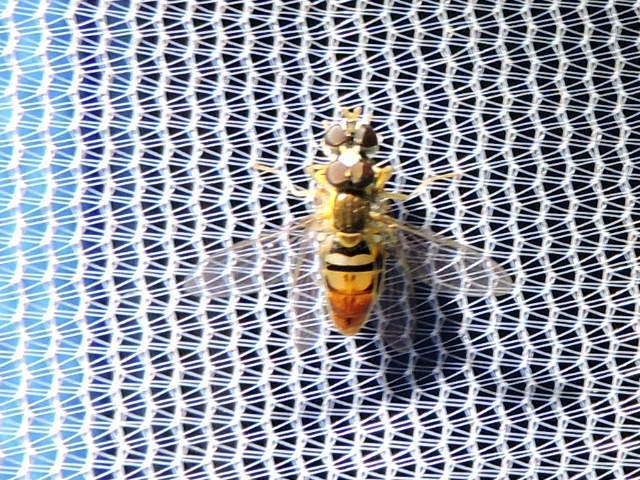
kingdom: Animalia
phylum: Arthropoda
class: Insecta
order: Diptera
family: Syrphidae
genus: Toxomerus
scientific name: Toxomerus marginatus
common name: Syrphid fly
